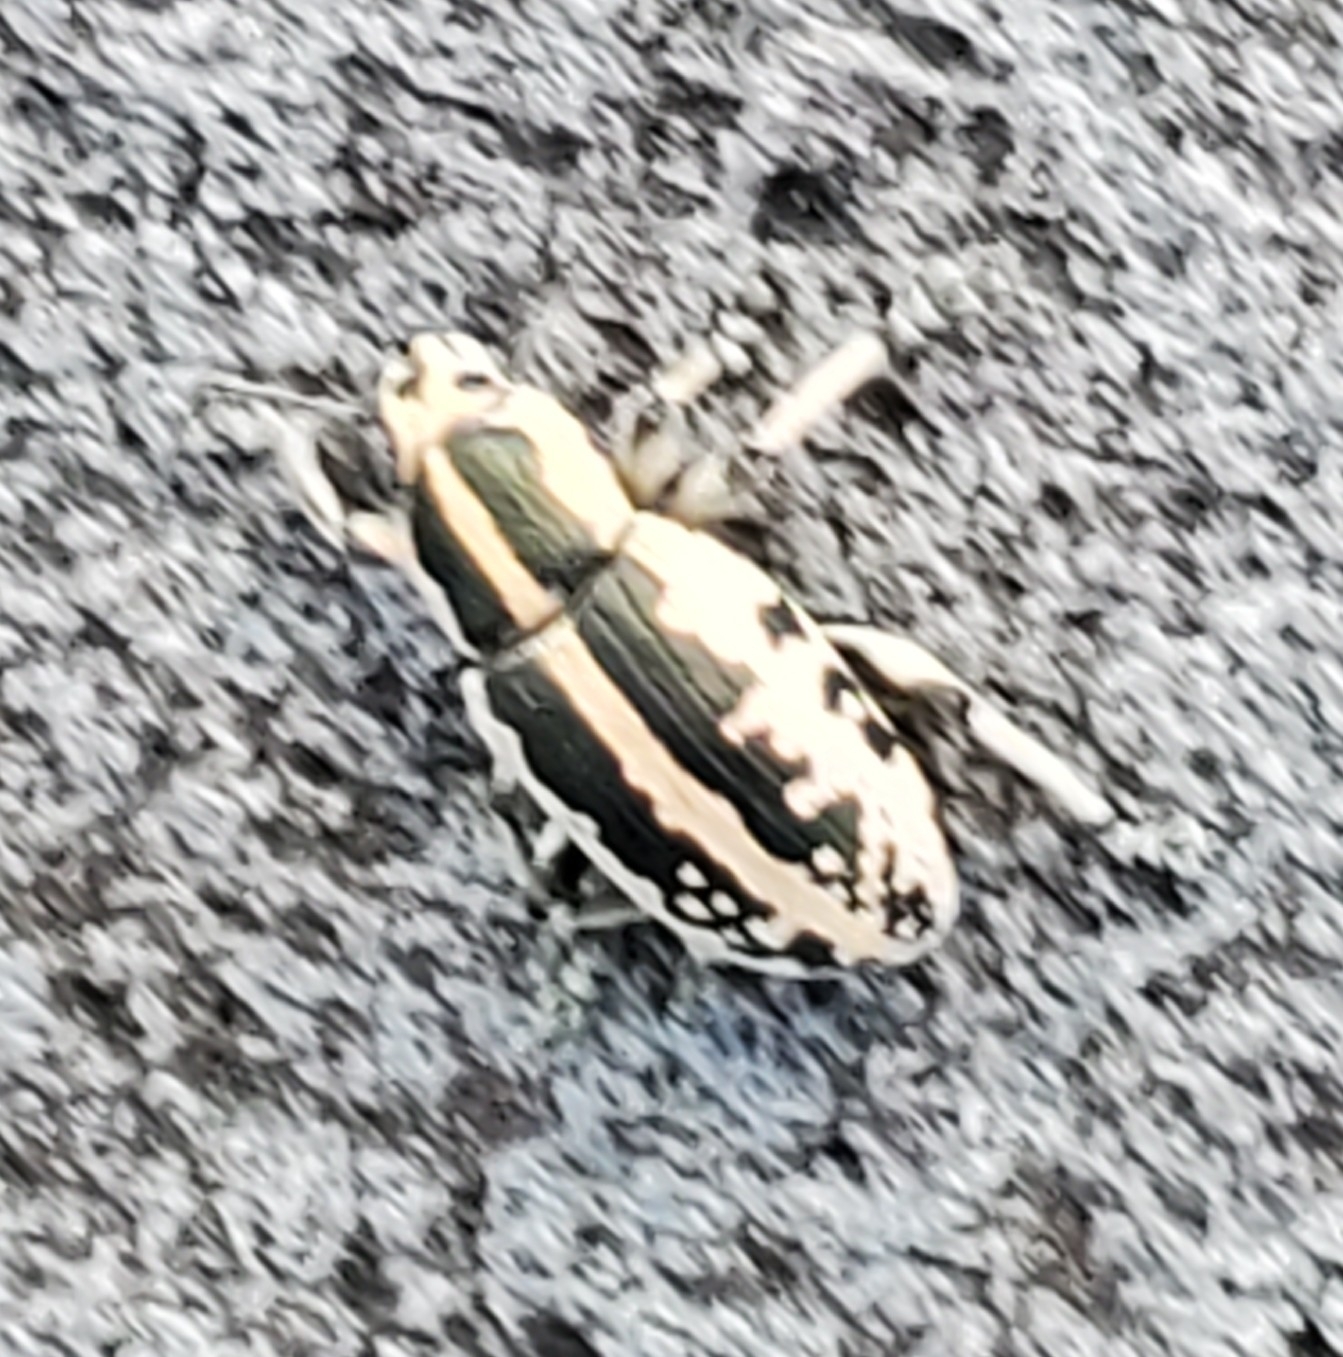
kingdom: Animalia
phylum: Arthropoda
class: Insecta
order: Coleoptera
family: Curculionidae
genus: Eudiagogus
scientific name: Eudiagogus rosenschoeldi
